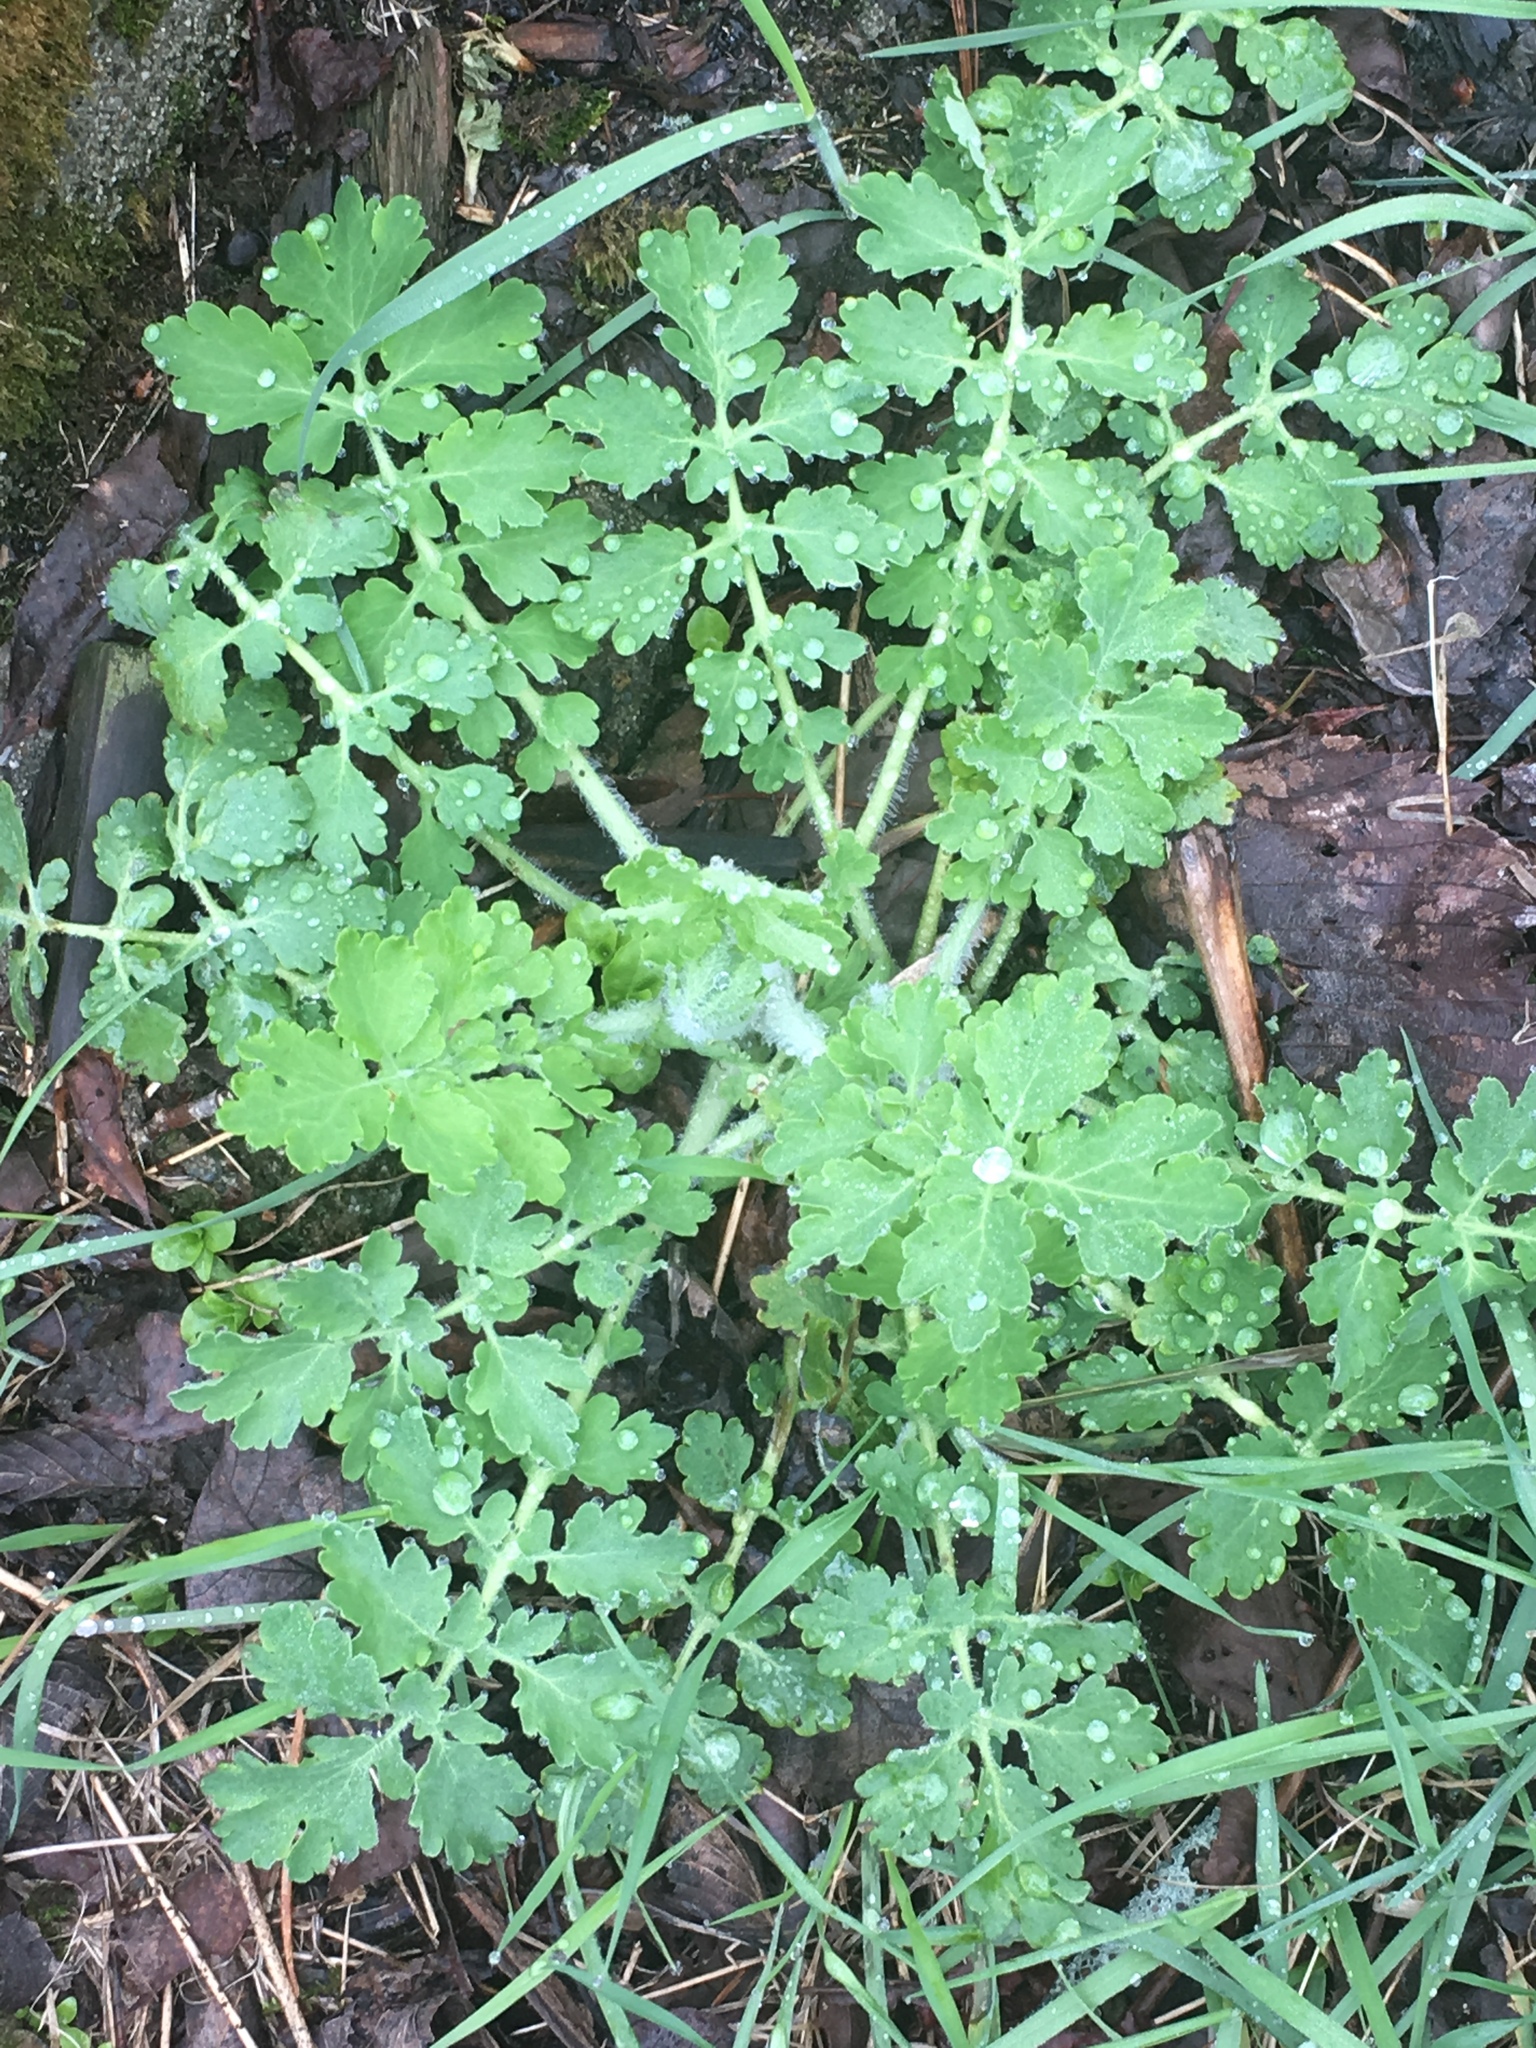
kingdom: Plantae
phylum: Tracheophyta
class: Magnoliopsida
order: Ranunculales
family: Papaveraceae
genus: Chelidonium
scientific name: Chelidonium majus
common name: Greater celandine
